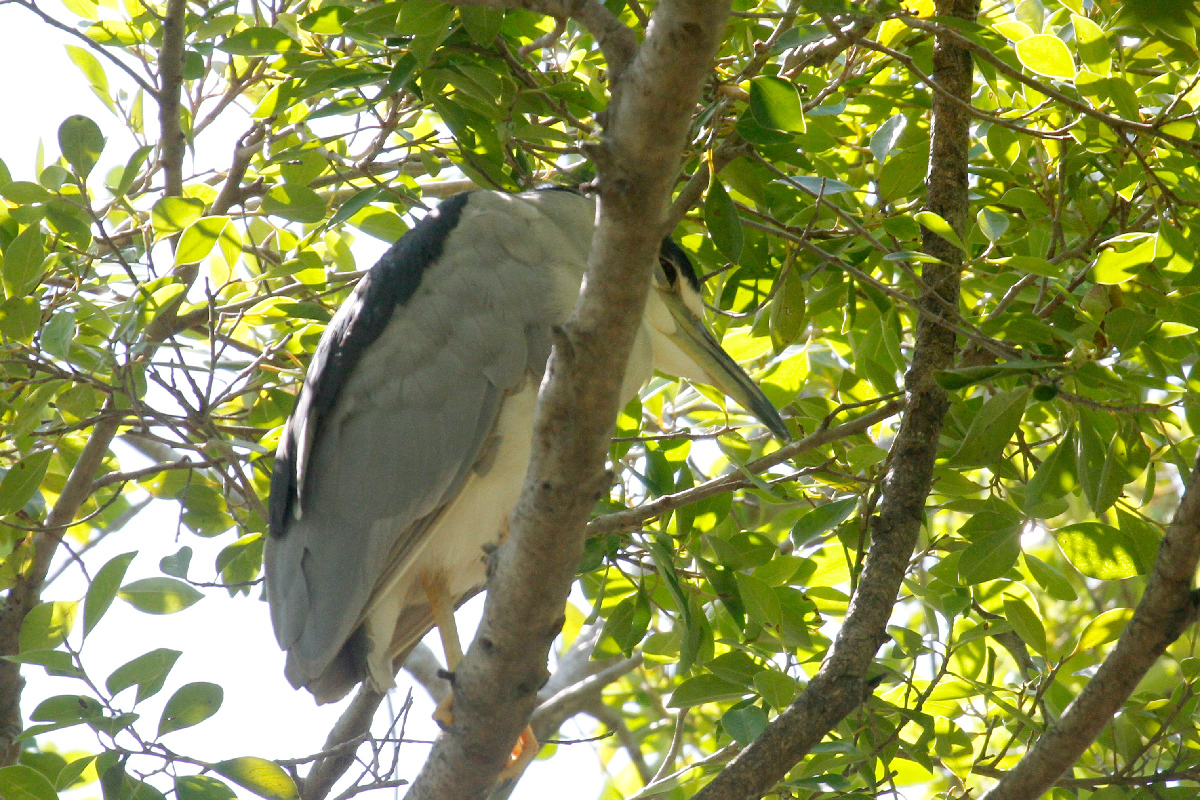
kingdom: Animalia
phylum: Chordata
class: Aves
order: Pelecaniformes
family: Ardeidae
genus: Nycticorax
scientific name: Nycticorax nycticorax
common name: Black-crowned night heron
